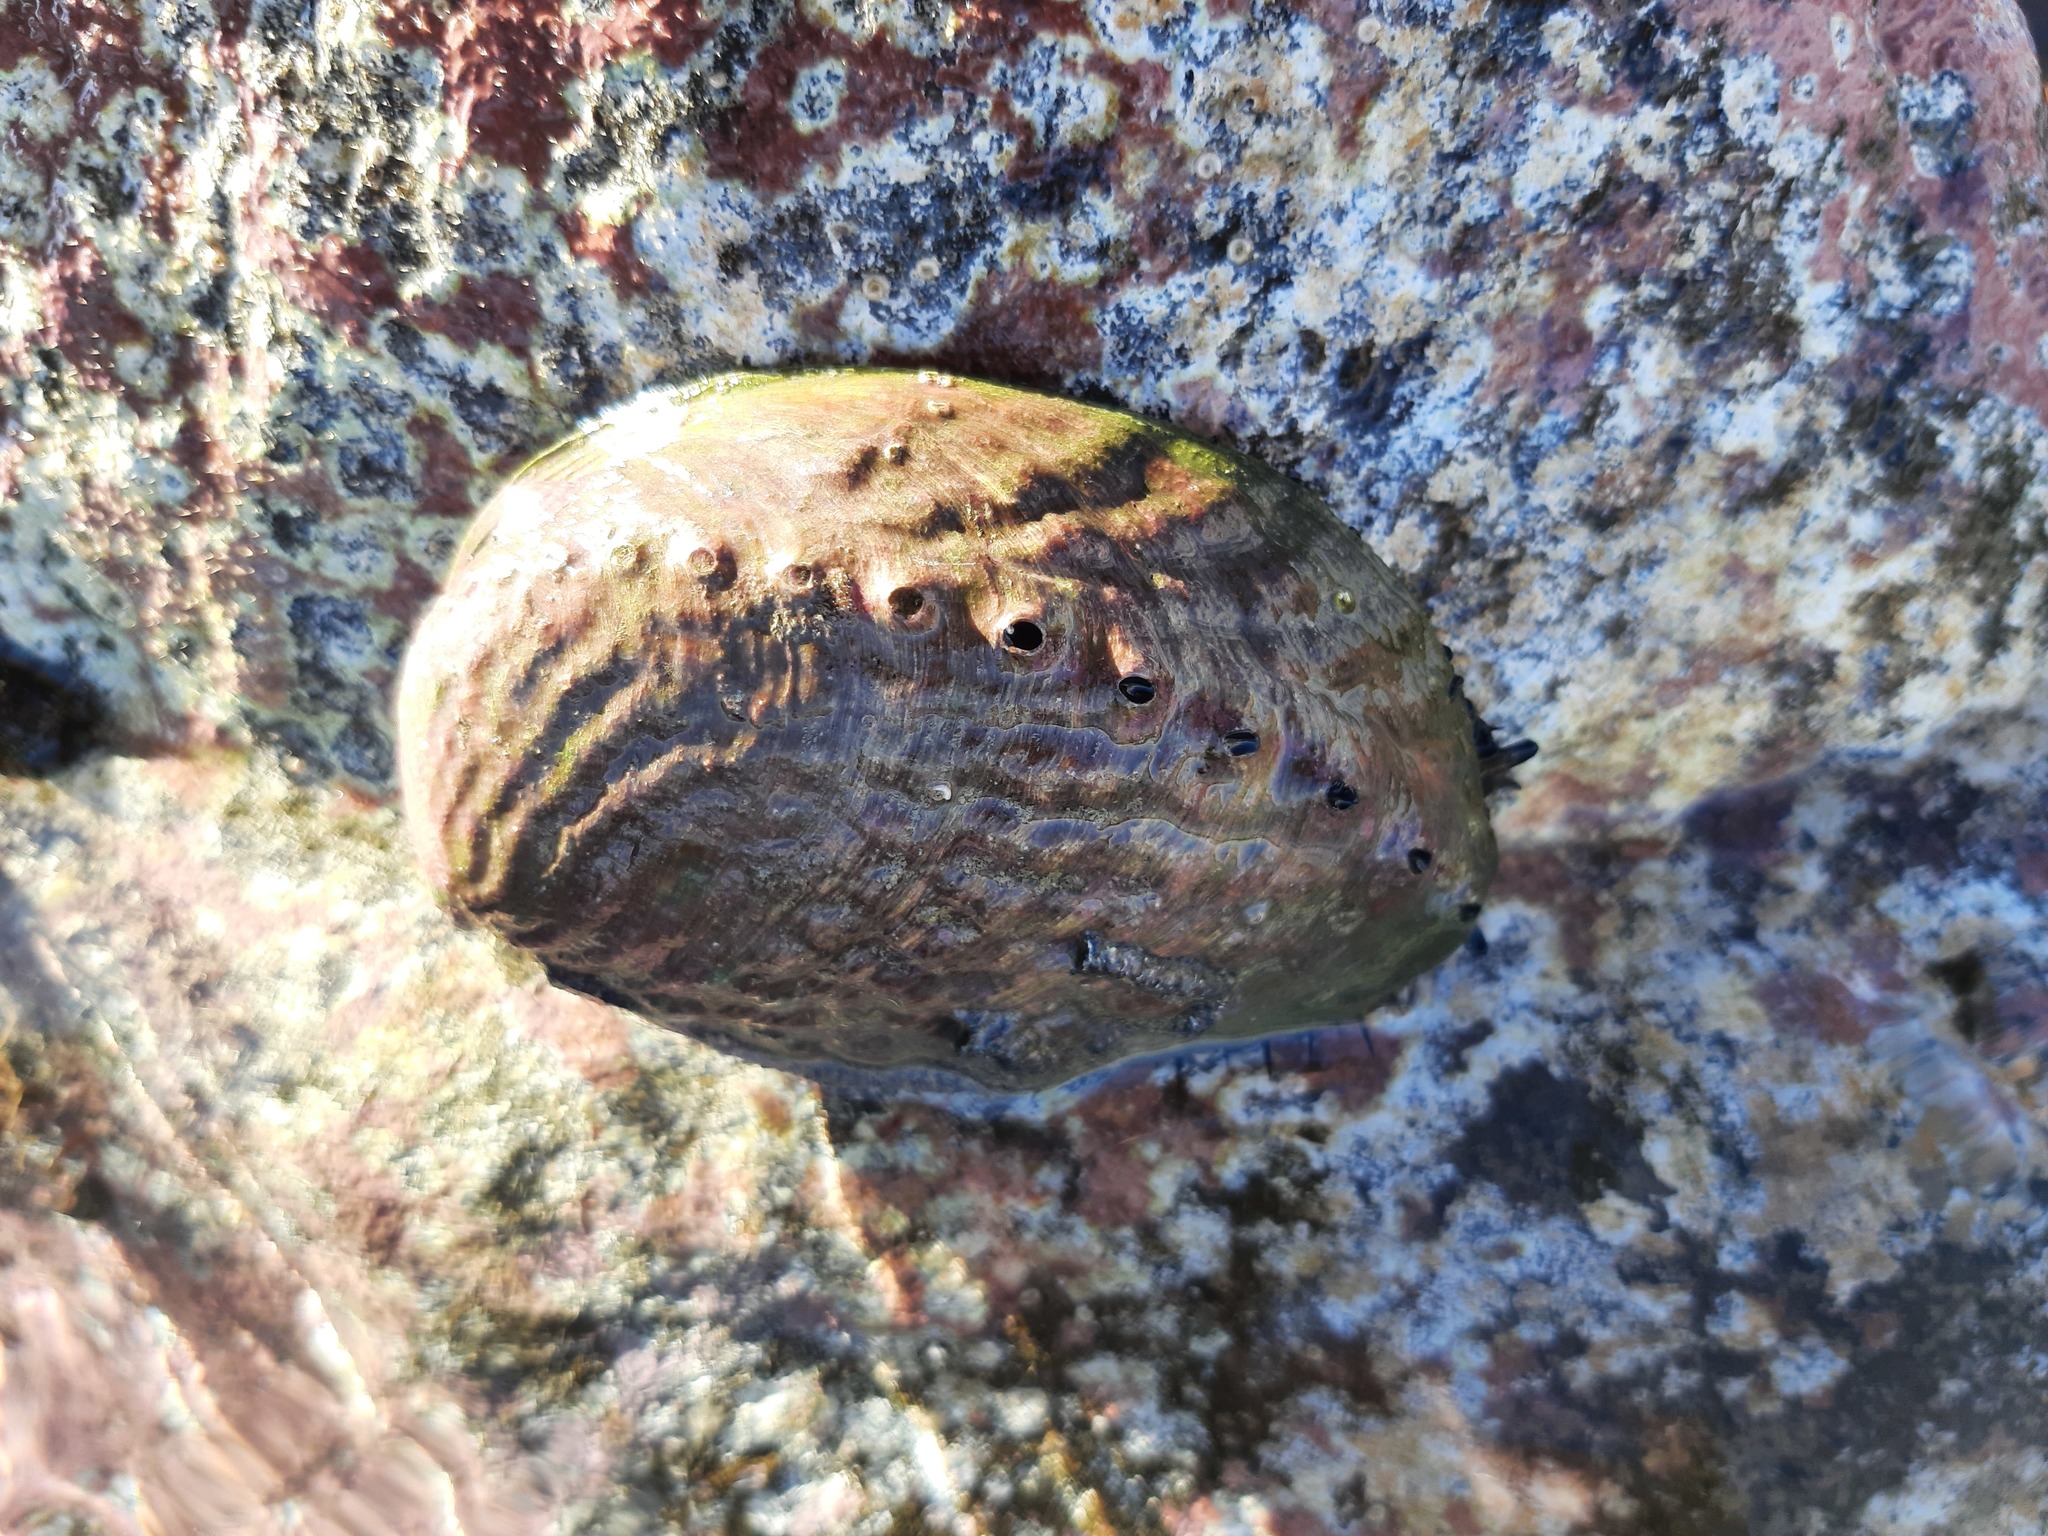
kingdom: Animalia
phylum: Mollusca
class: Gastropoda
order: Lepetellida
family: Haliotidae
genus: Haliotis
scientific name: Haliotis iris
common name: Abalone
